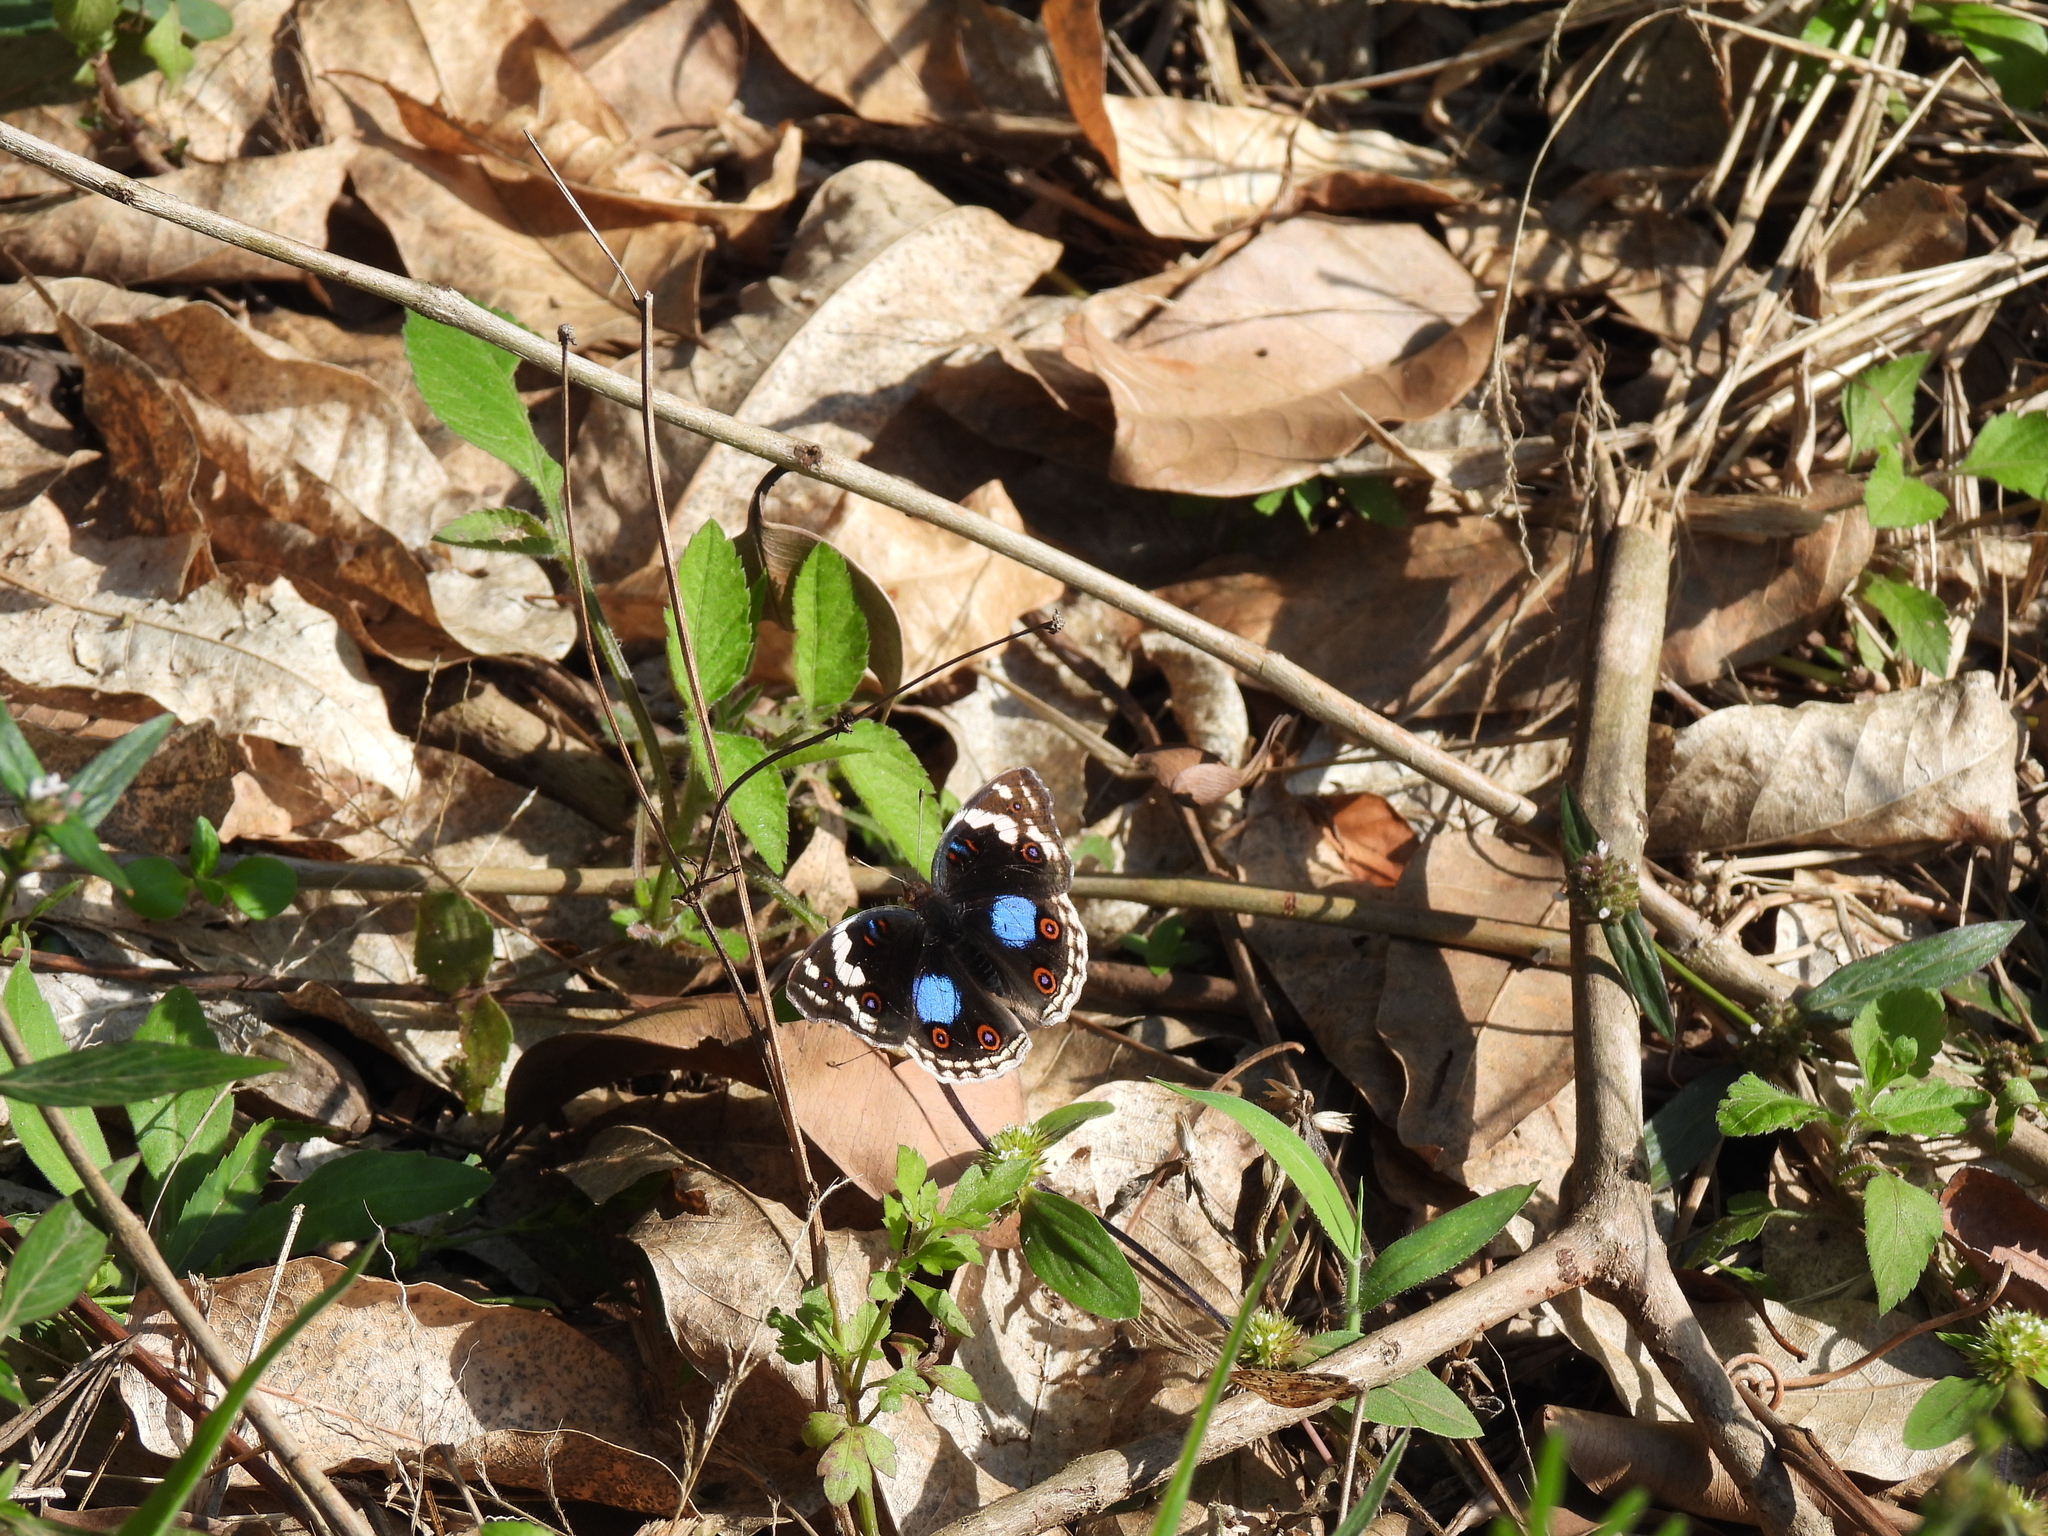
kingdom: Animalia
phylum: Arthropoda
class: Insecta
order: Lepidoptera
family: Nymphalidae
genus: Junonia
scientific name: Junonia oenone
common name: Dark blue pansy
